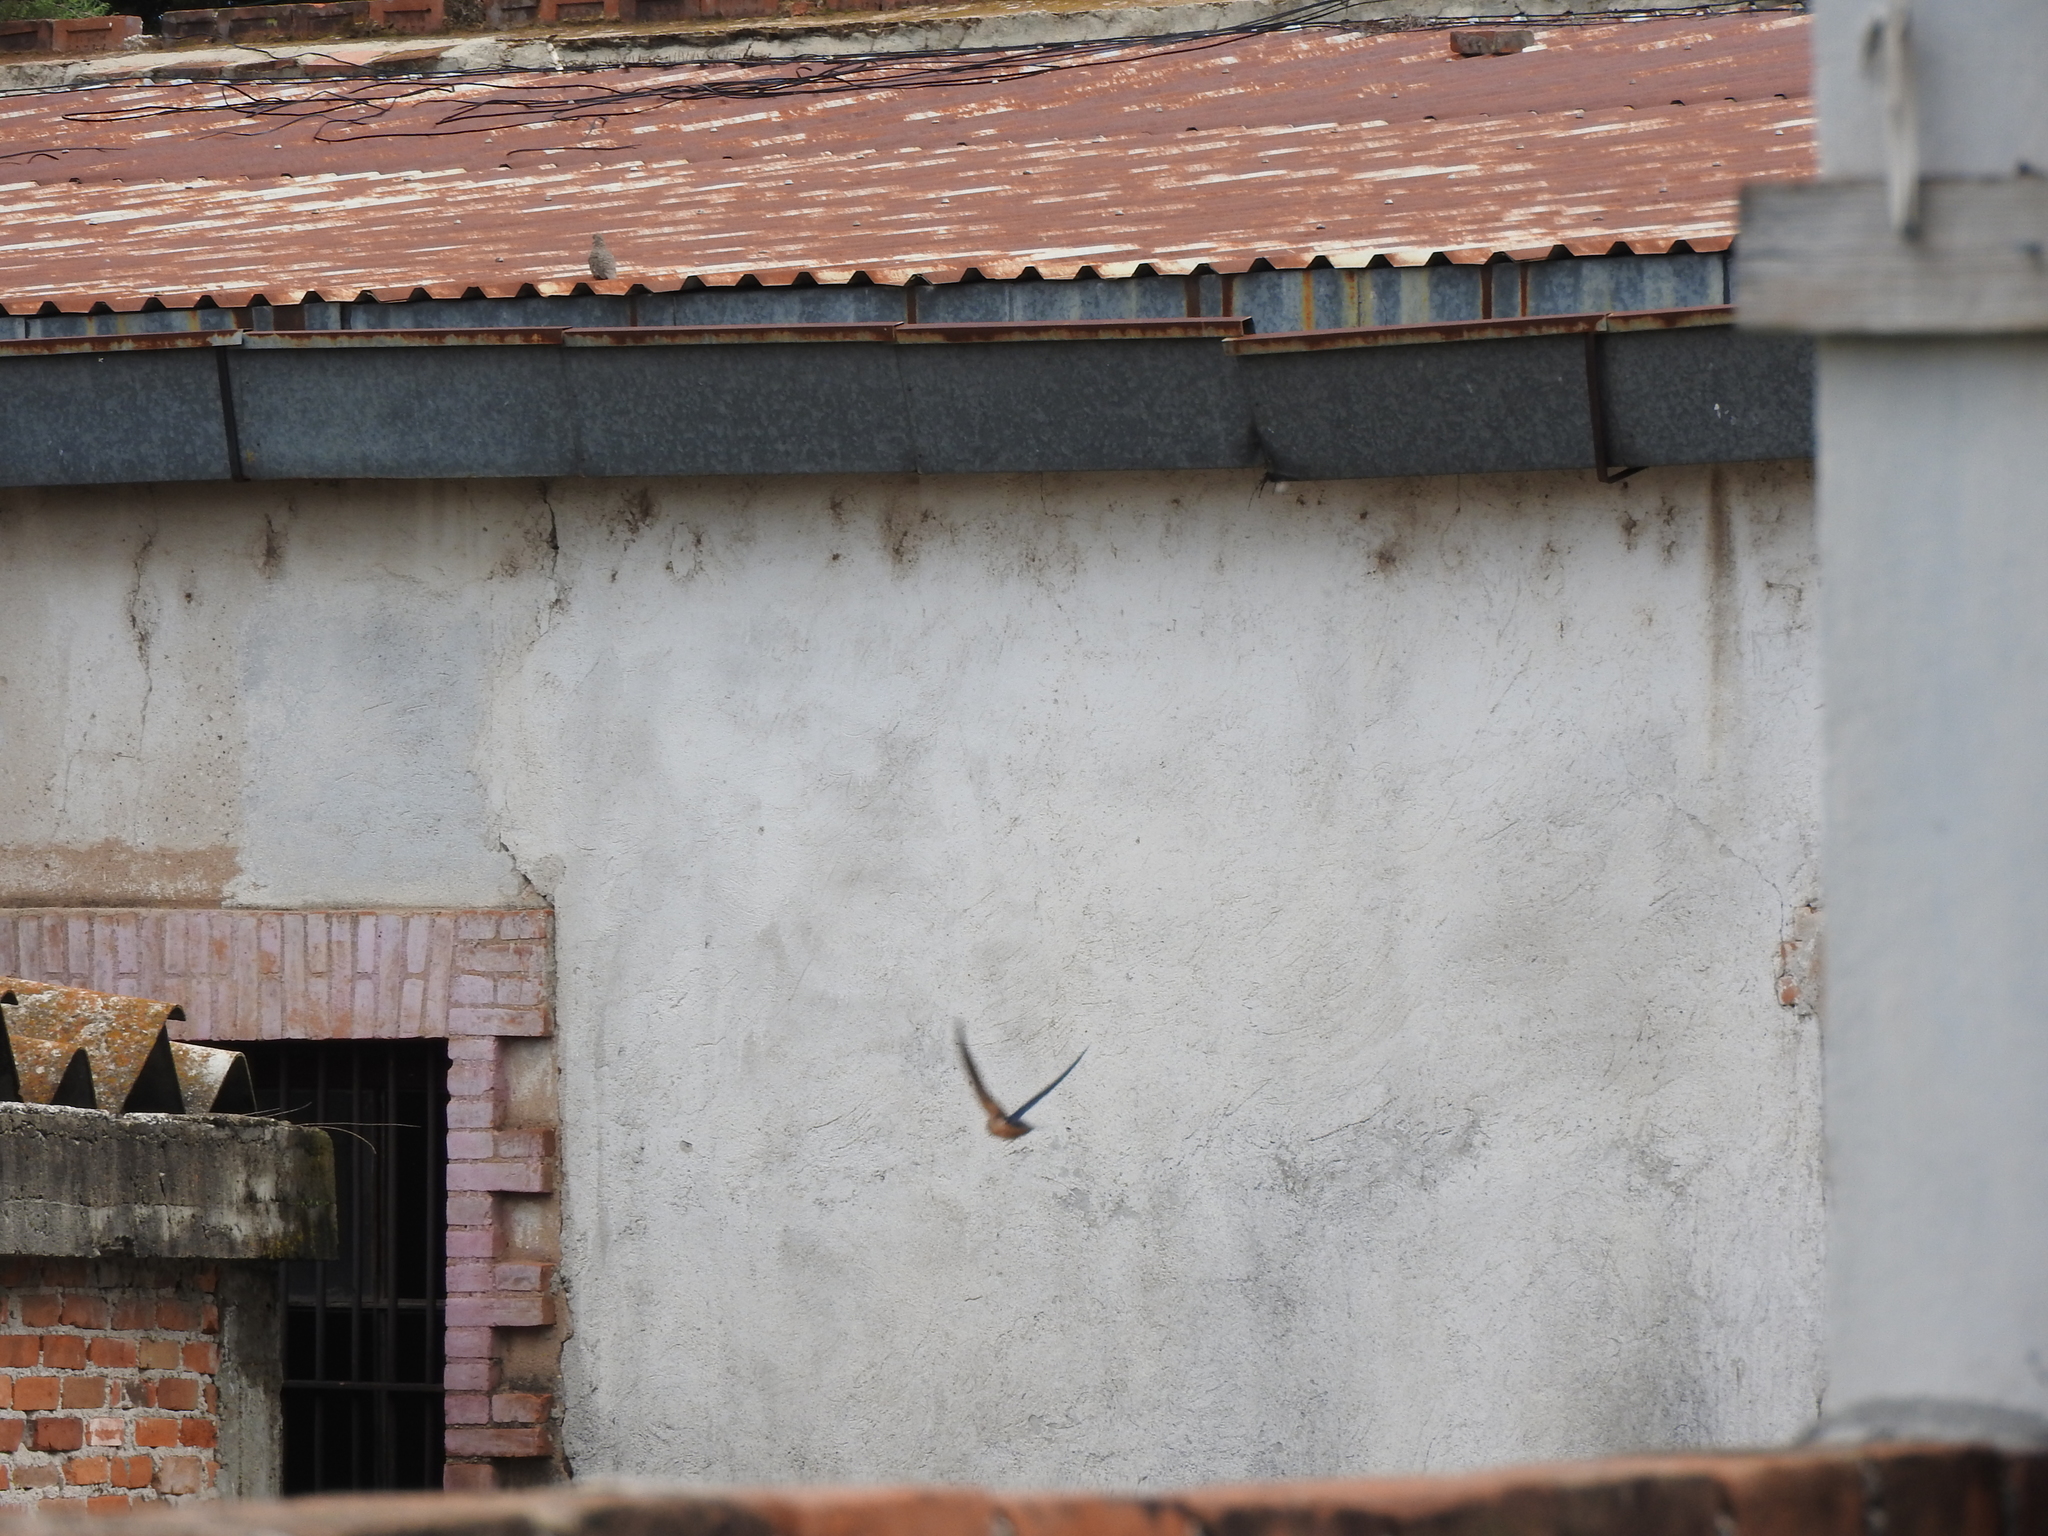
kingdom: Animalia
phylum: Chordata
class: Aves
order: Passeriformes
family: Hirundinidae
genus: Hirundo
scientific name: Hirundo rustica
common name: Barn swallow
